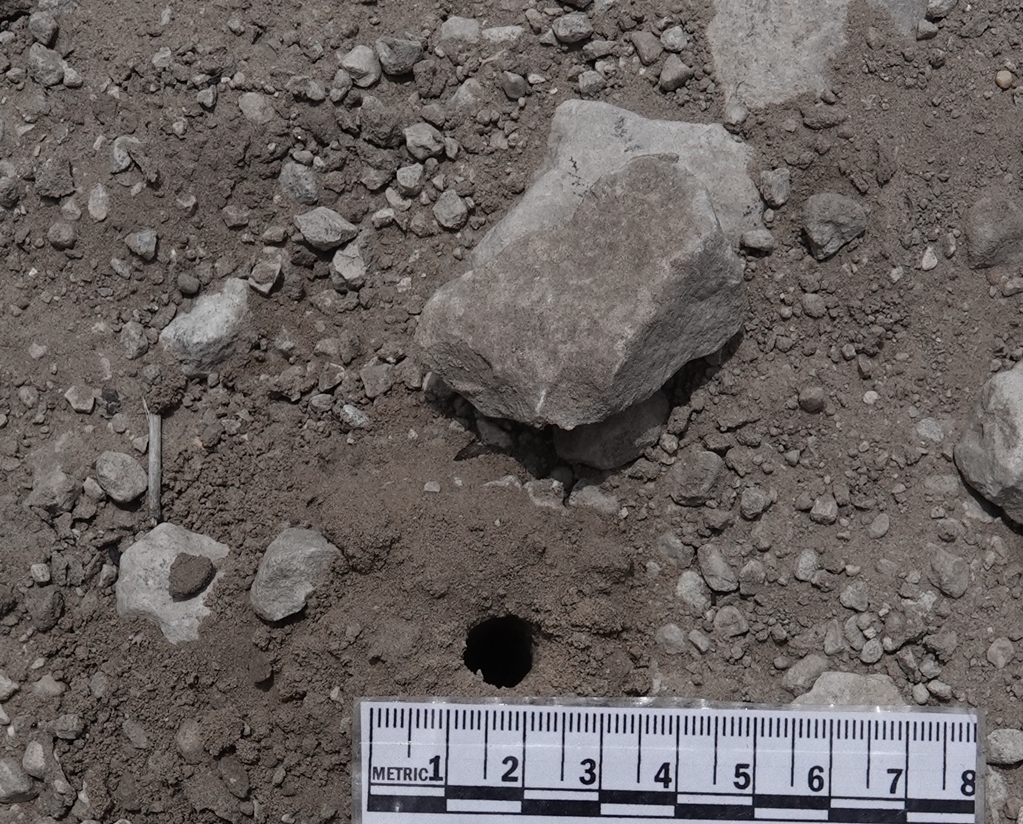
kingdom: Animalia
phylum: Arthropoda
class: Insecta
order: Hymenoptera
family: Crabronidae
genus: Cerceris
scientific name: Cerceris fumipennis
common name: Smokey-winged beetle bandit wasp
